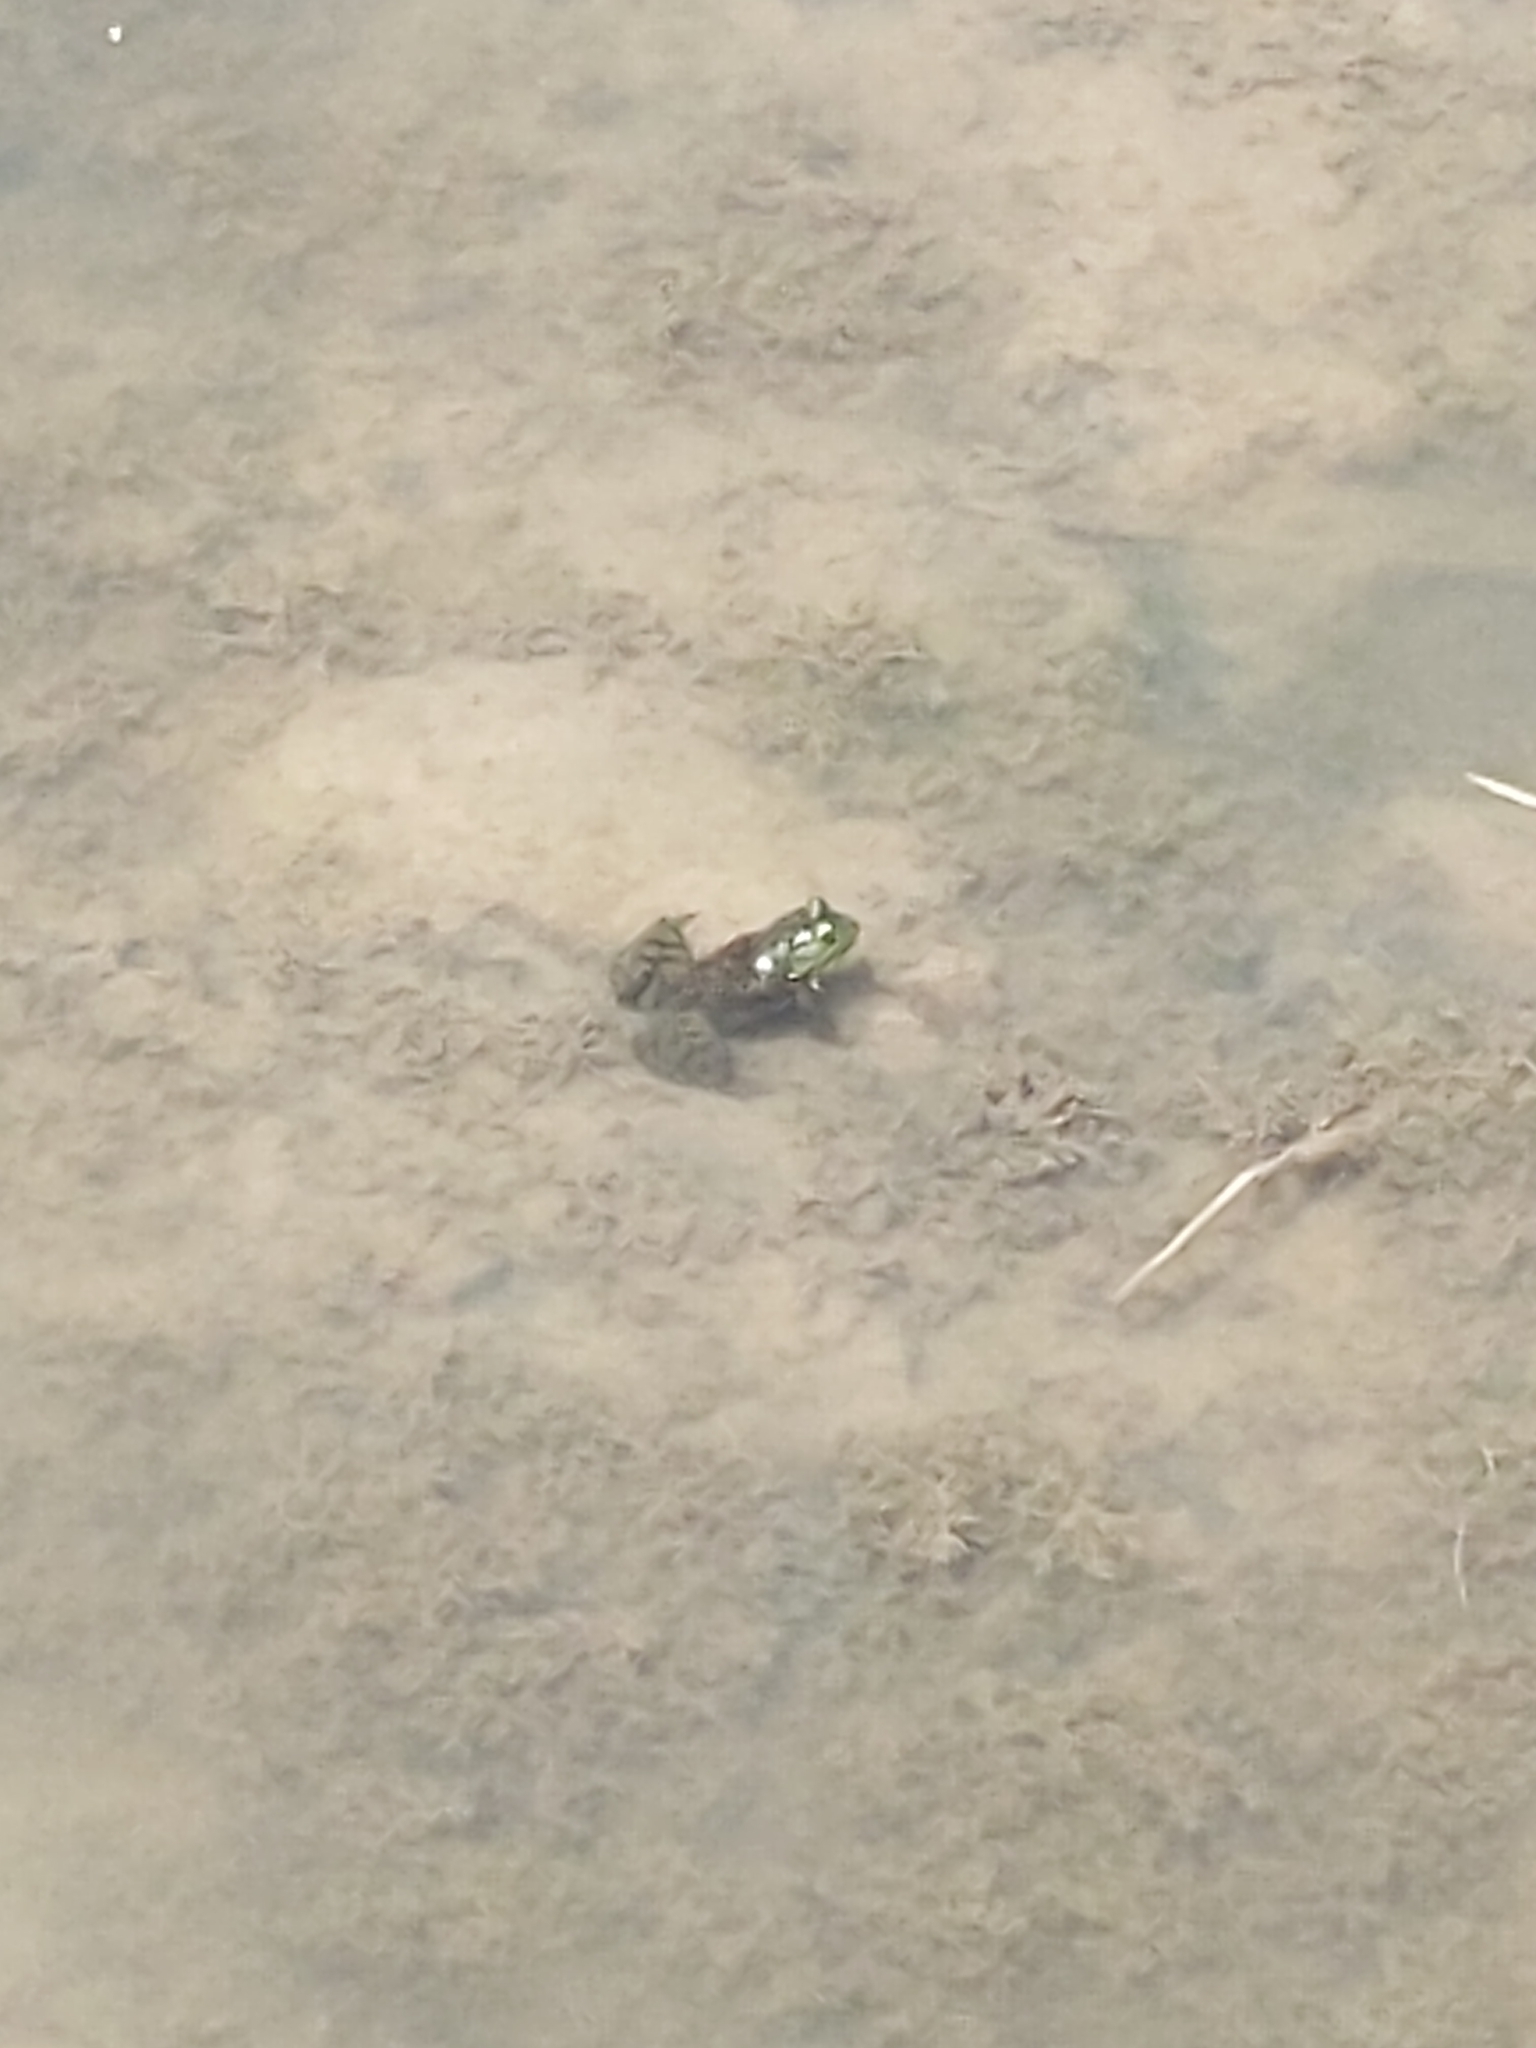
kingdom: Animalia
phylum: Chordata
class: Amphibia
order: Anura
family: Ranidae
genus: Lithobates
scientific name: Lithobates catesbeianus
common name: American bullfrog
